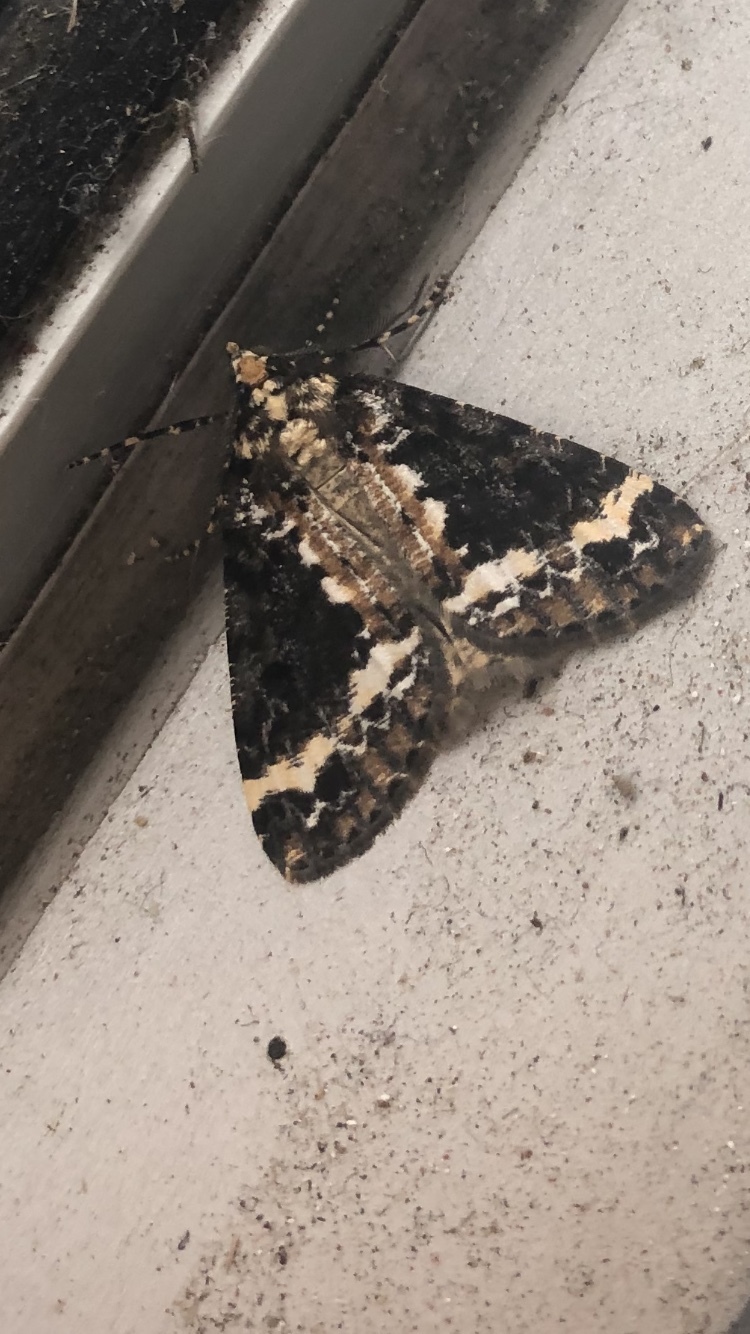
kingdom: Animalia
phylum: Arthropoda
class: Insecta
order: Lepidoptera
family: Geometridae
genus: Pseudocoremia
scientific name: Pseudocoremia leucelaea
